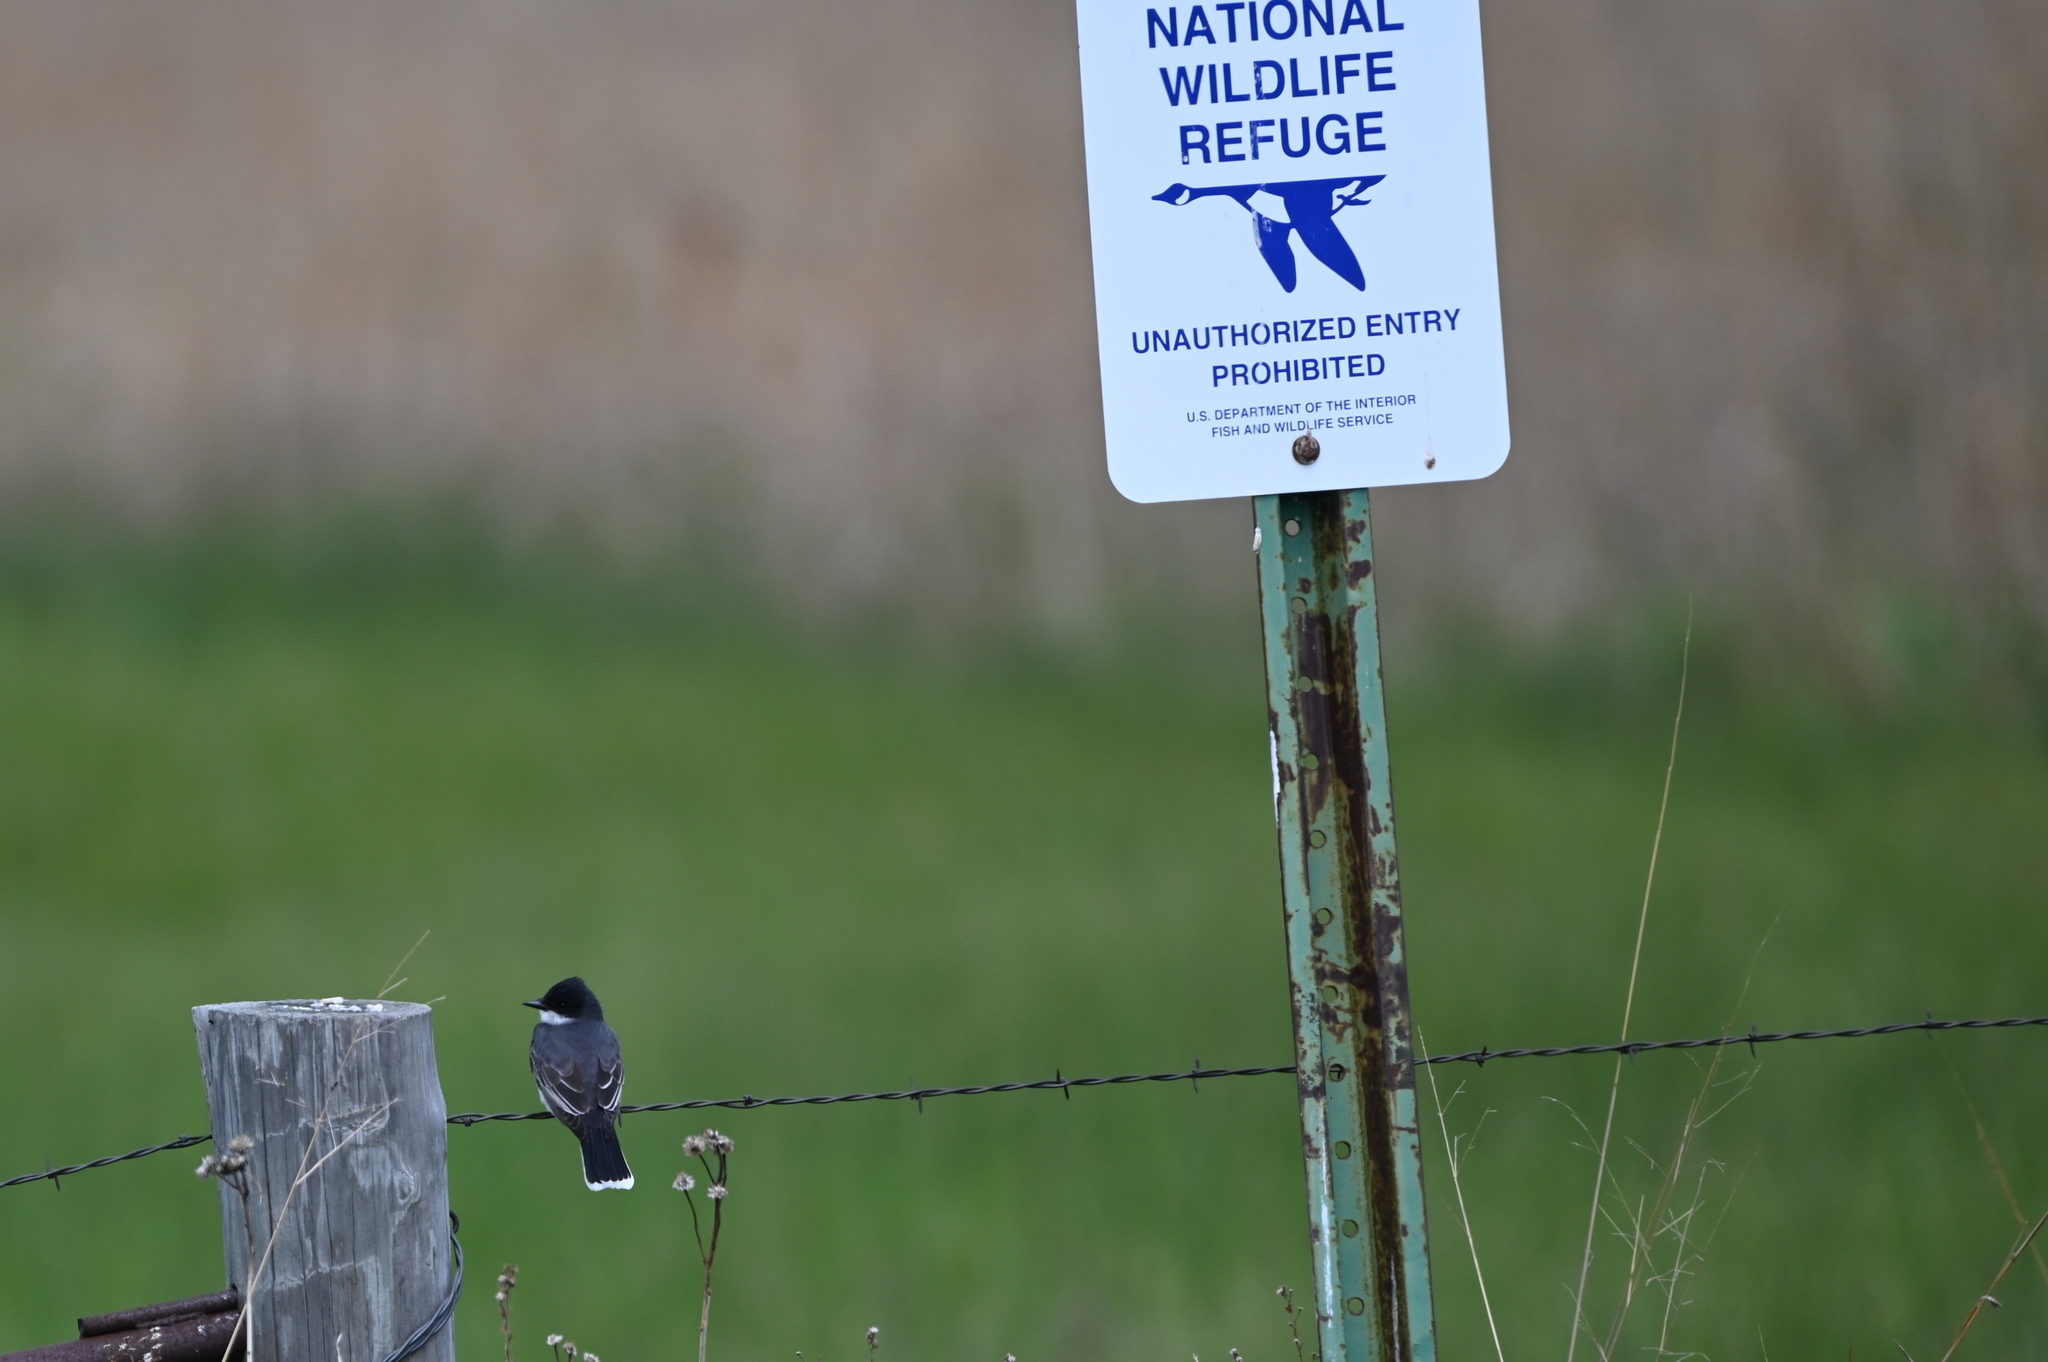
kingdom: Animalia
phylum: Chordata
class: Aves
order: Passeriformes
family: Tyrannidae
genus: Tyrannus
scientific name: Tyrannus tyrannus
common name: Eastern kingbird
